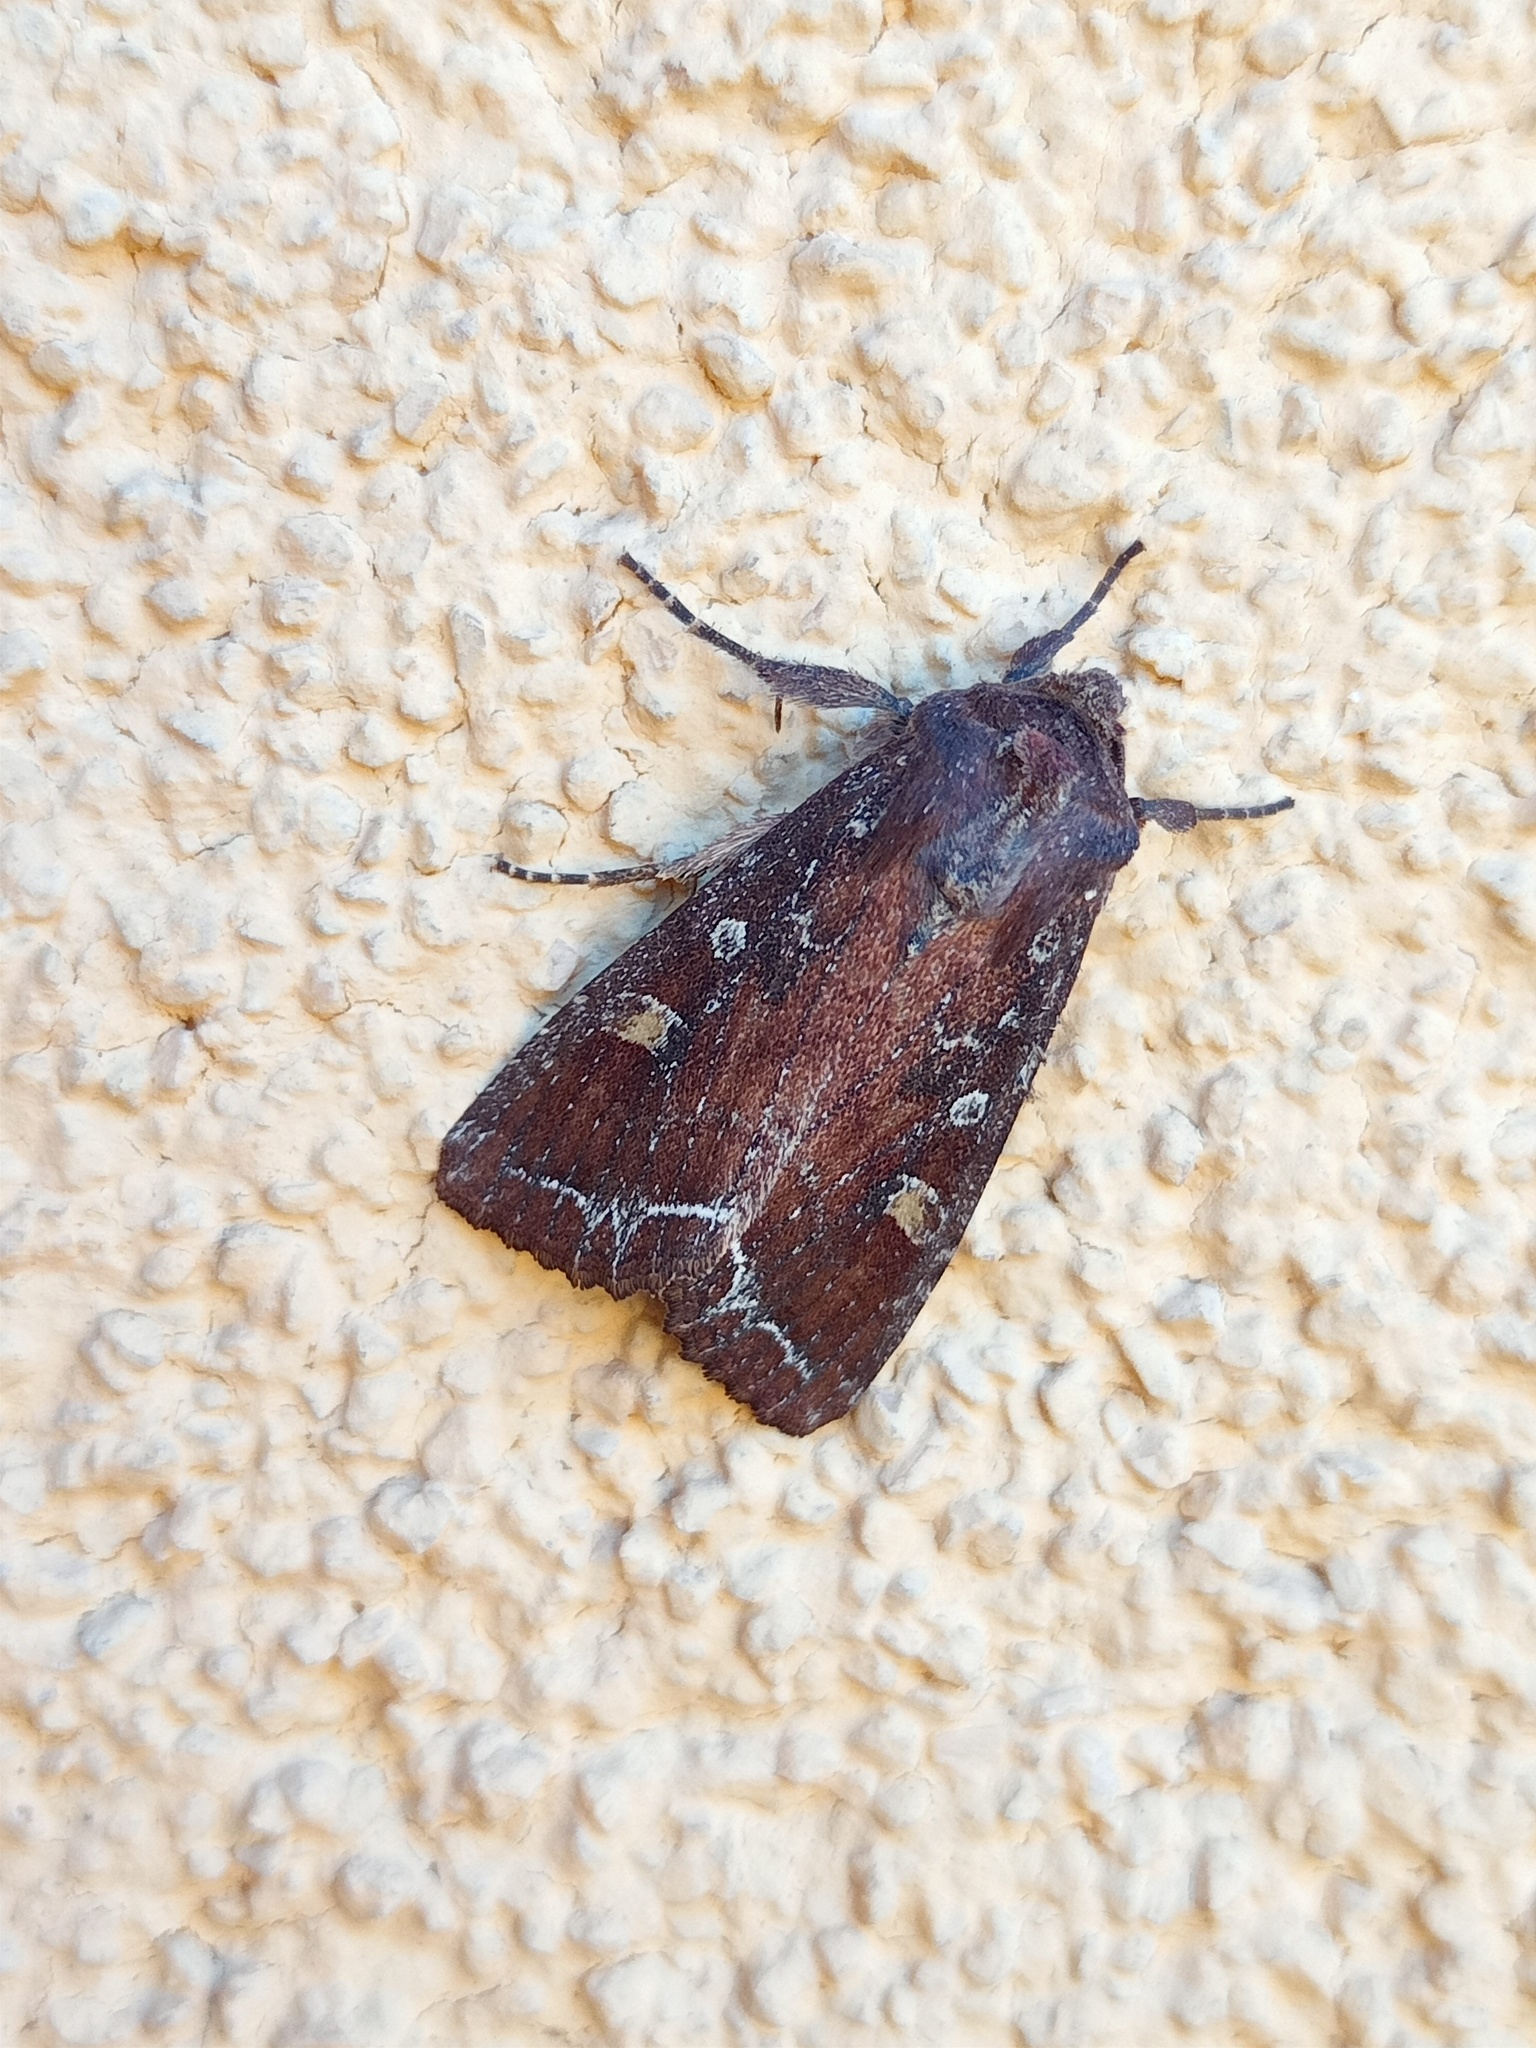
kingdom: Animalia
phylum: Arthropoda
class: Insecta
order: Lepidoptera
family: Noctuidae
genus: Lacanobia
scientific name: Lacanobia oleracea
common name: Bright-line brown-eye
